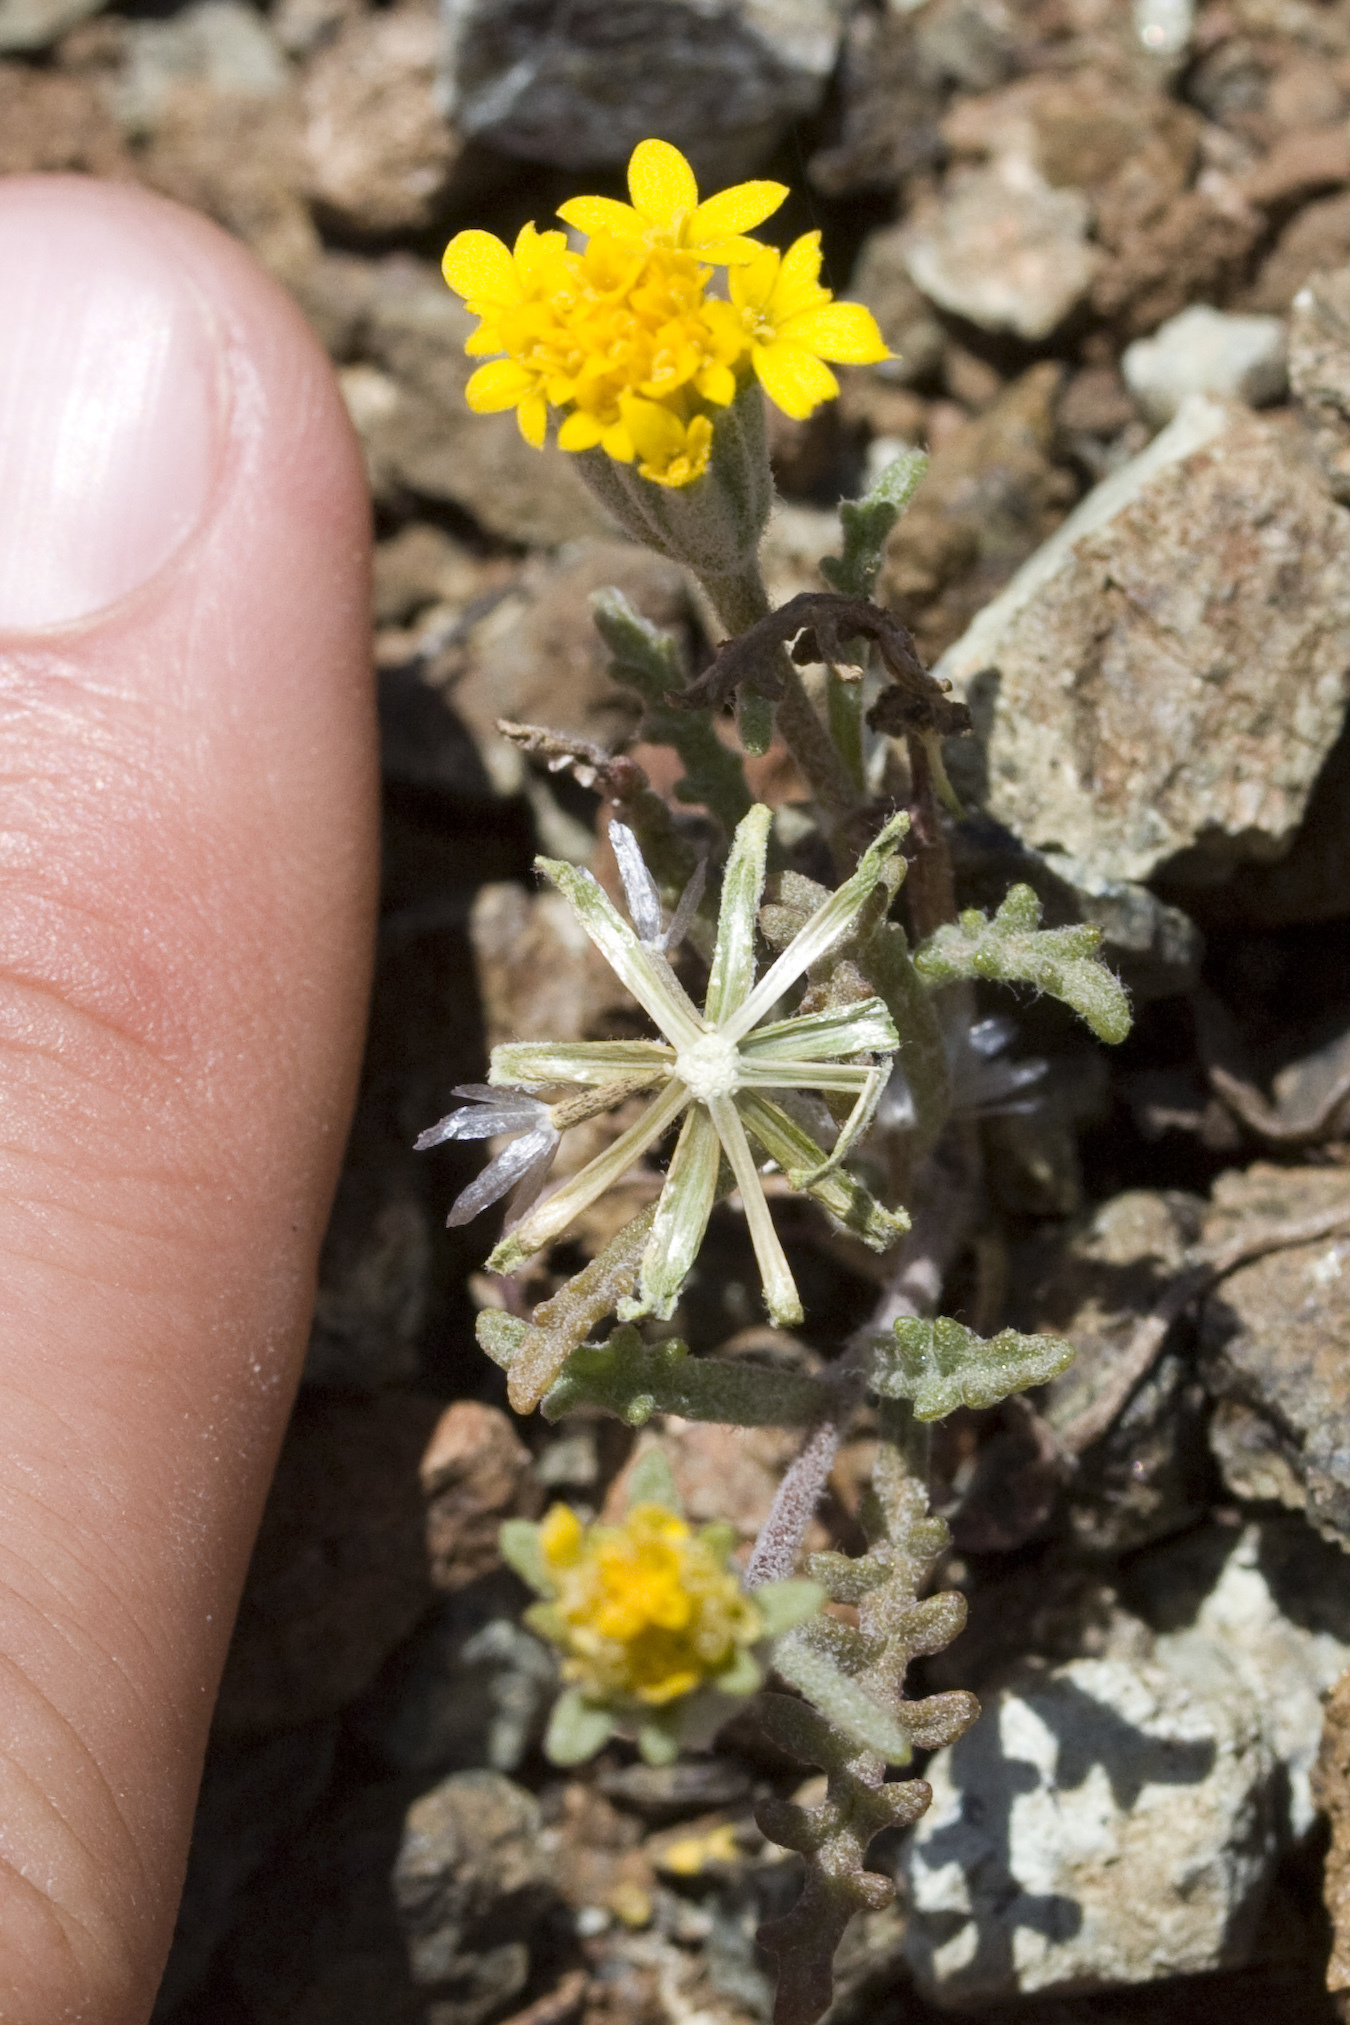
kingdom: Plantae
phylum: Tracheophyta
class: Magnoliopsida
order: Asterales
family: Asteraceae
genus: Chaenactis
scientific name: Chaenactis glabriuscula
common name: Yellow pincushion
